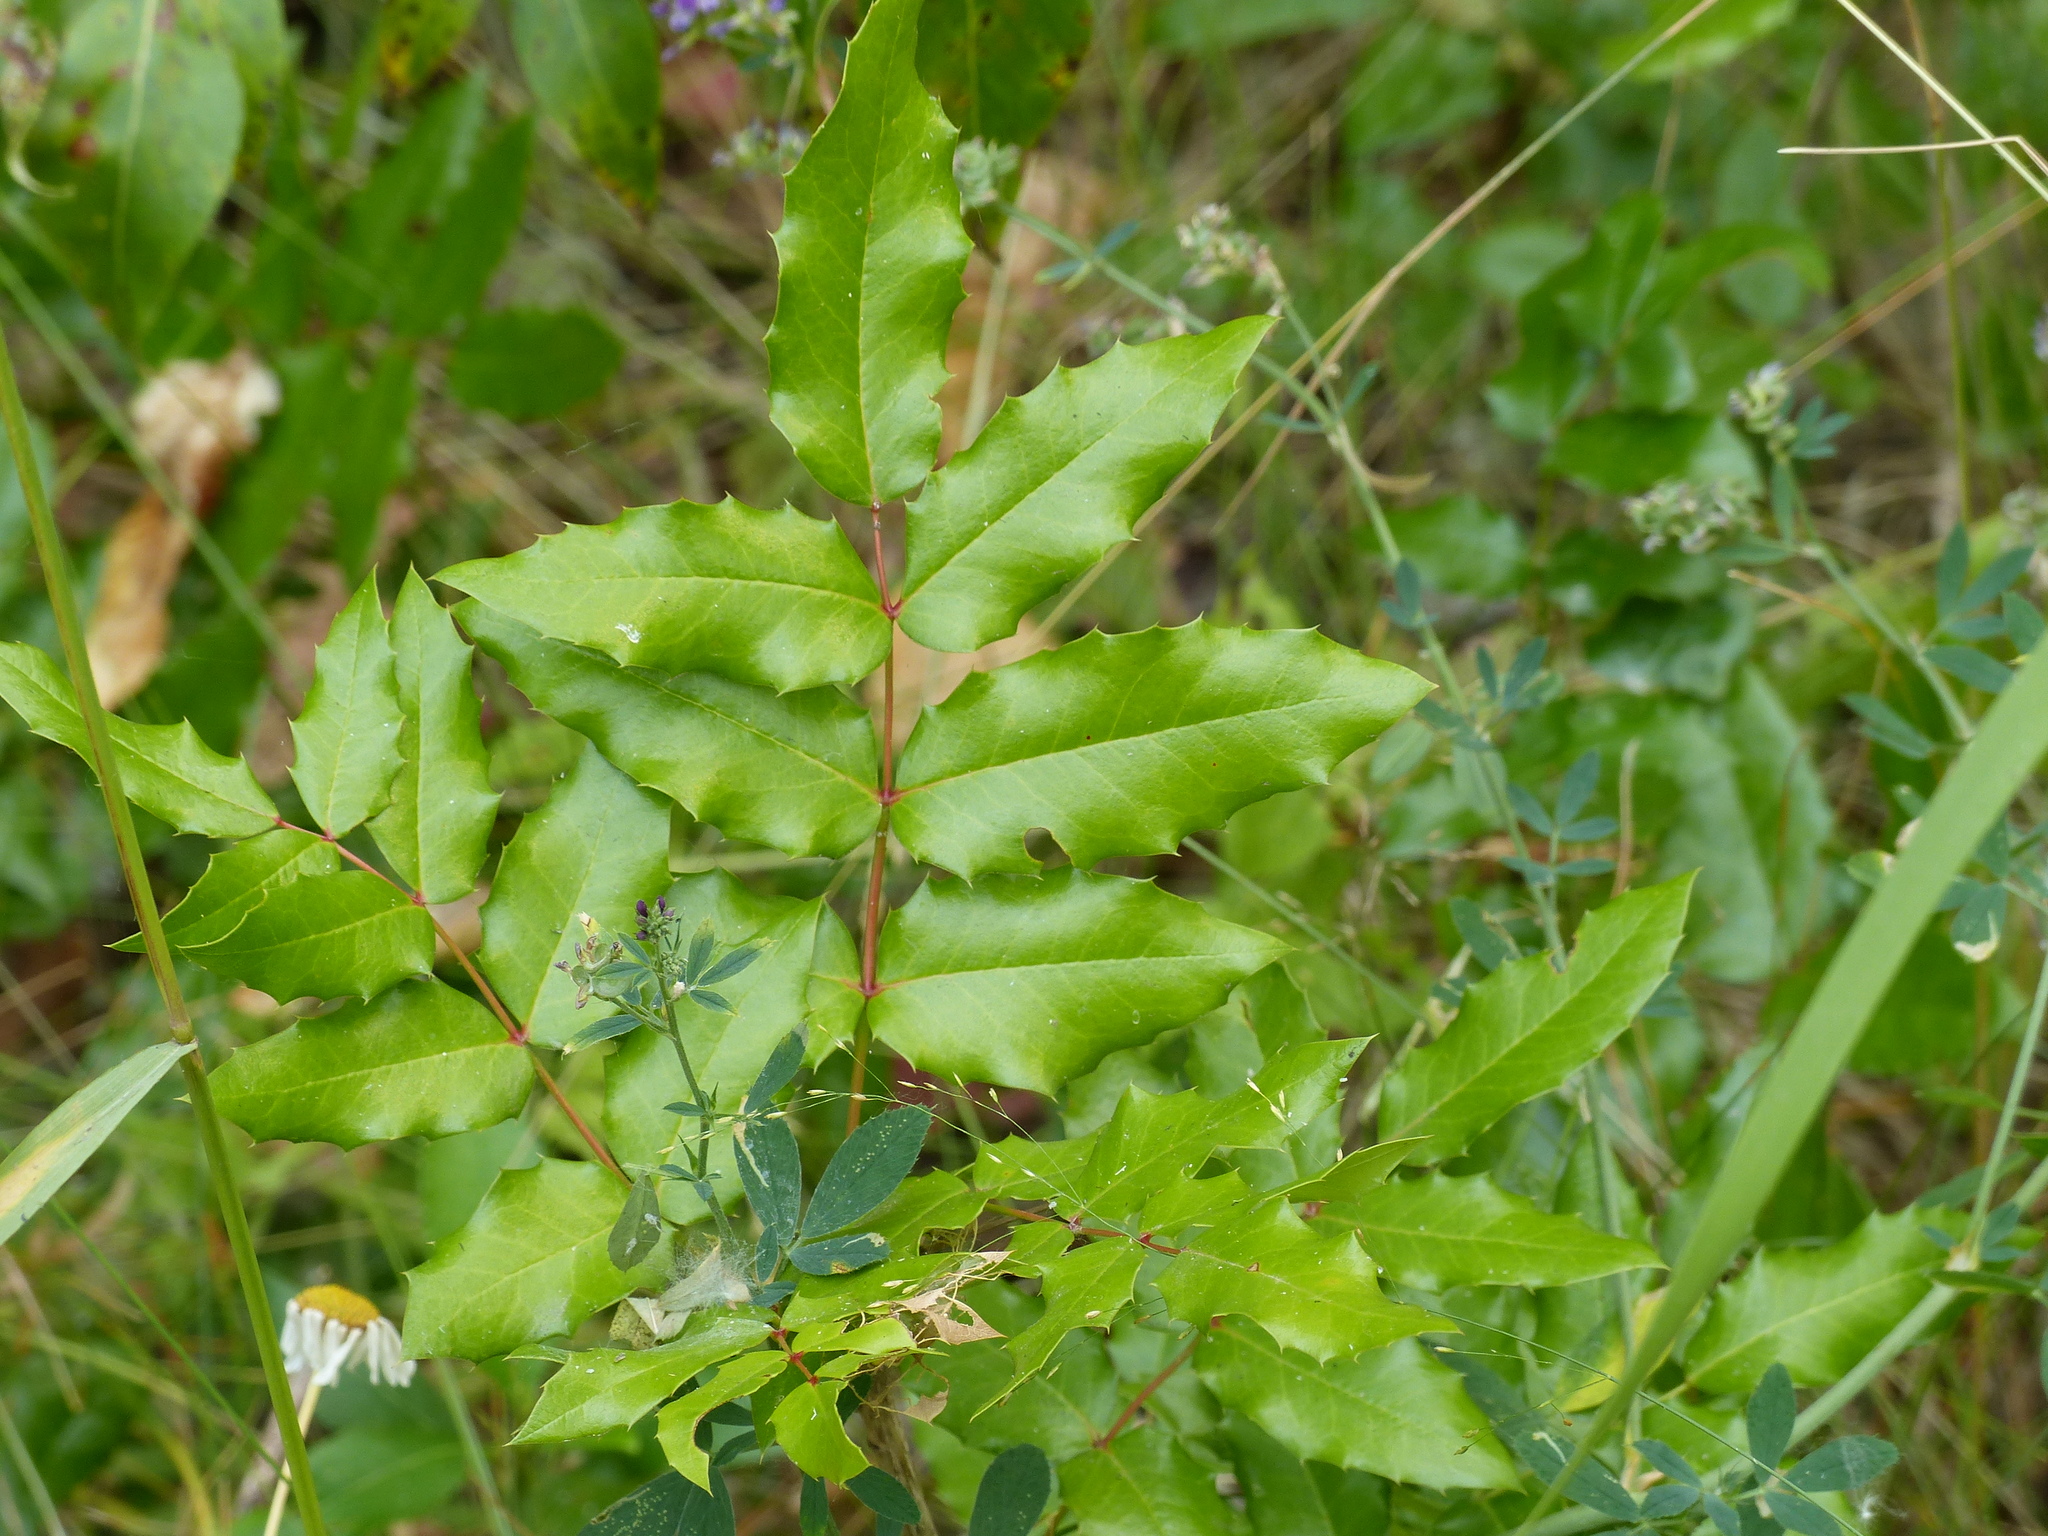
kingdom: Plantae
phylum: Tracheophyta
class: Magnoliopsida
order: Ranunculales
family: Berberidaceae
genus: Mahonia
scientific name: Mahonia aquifolium
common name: Oregon-grape
